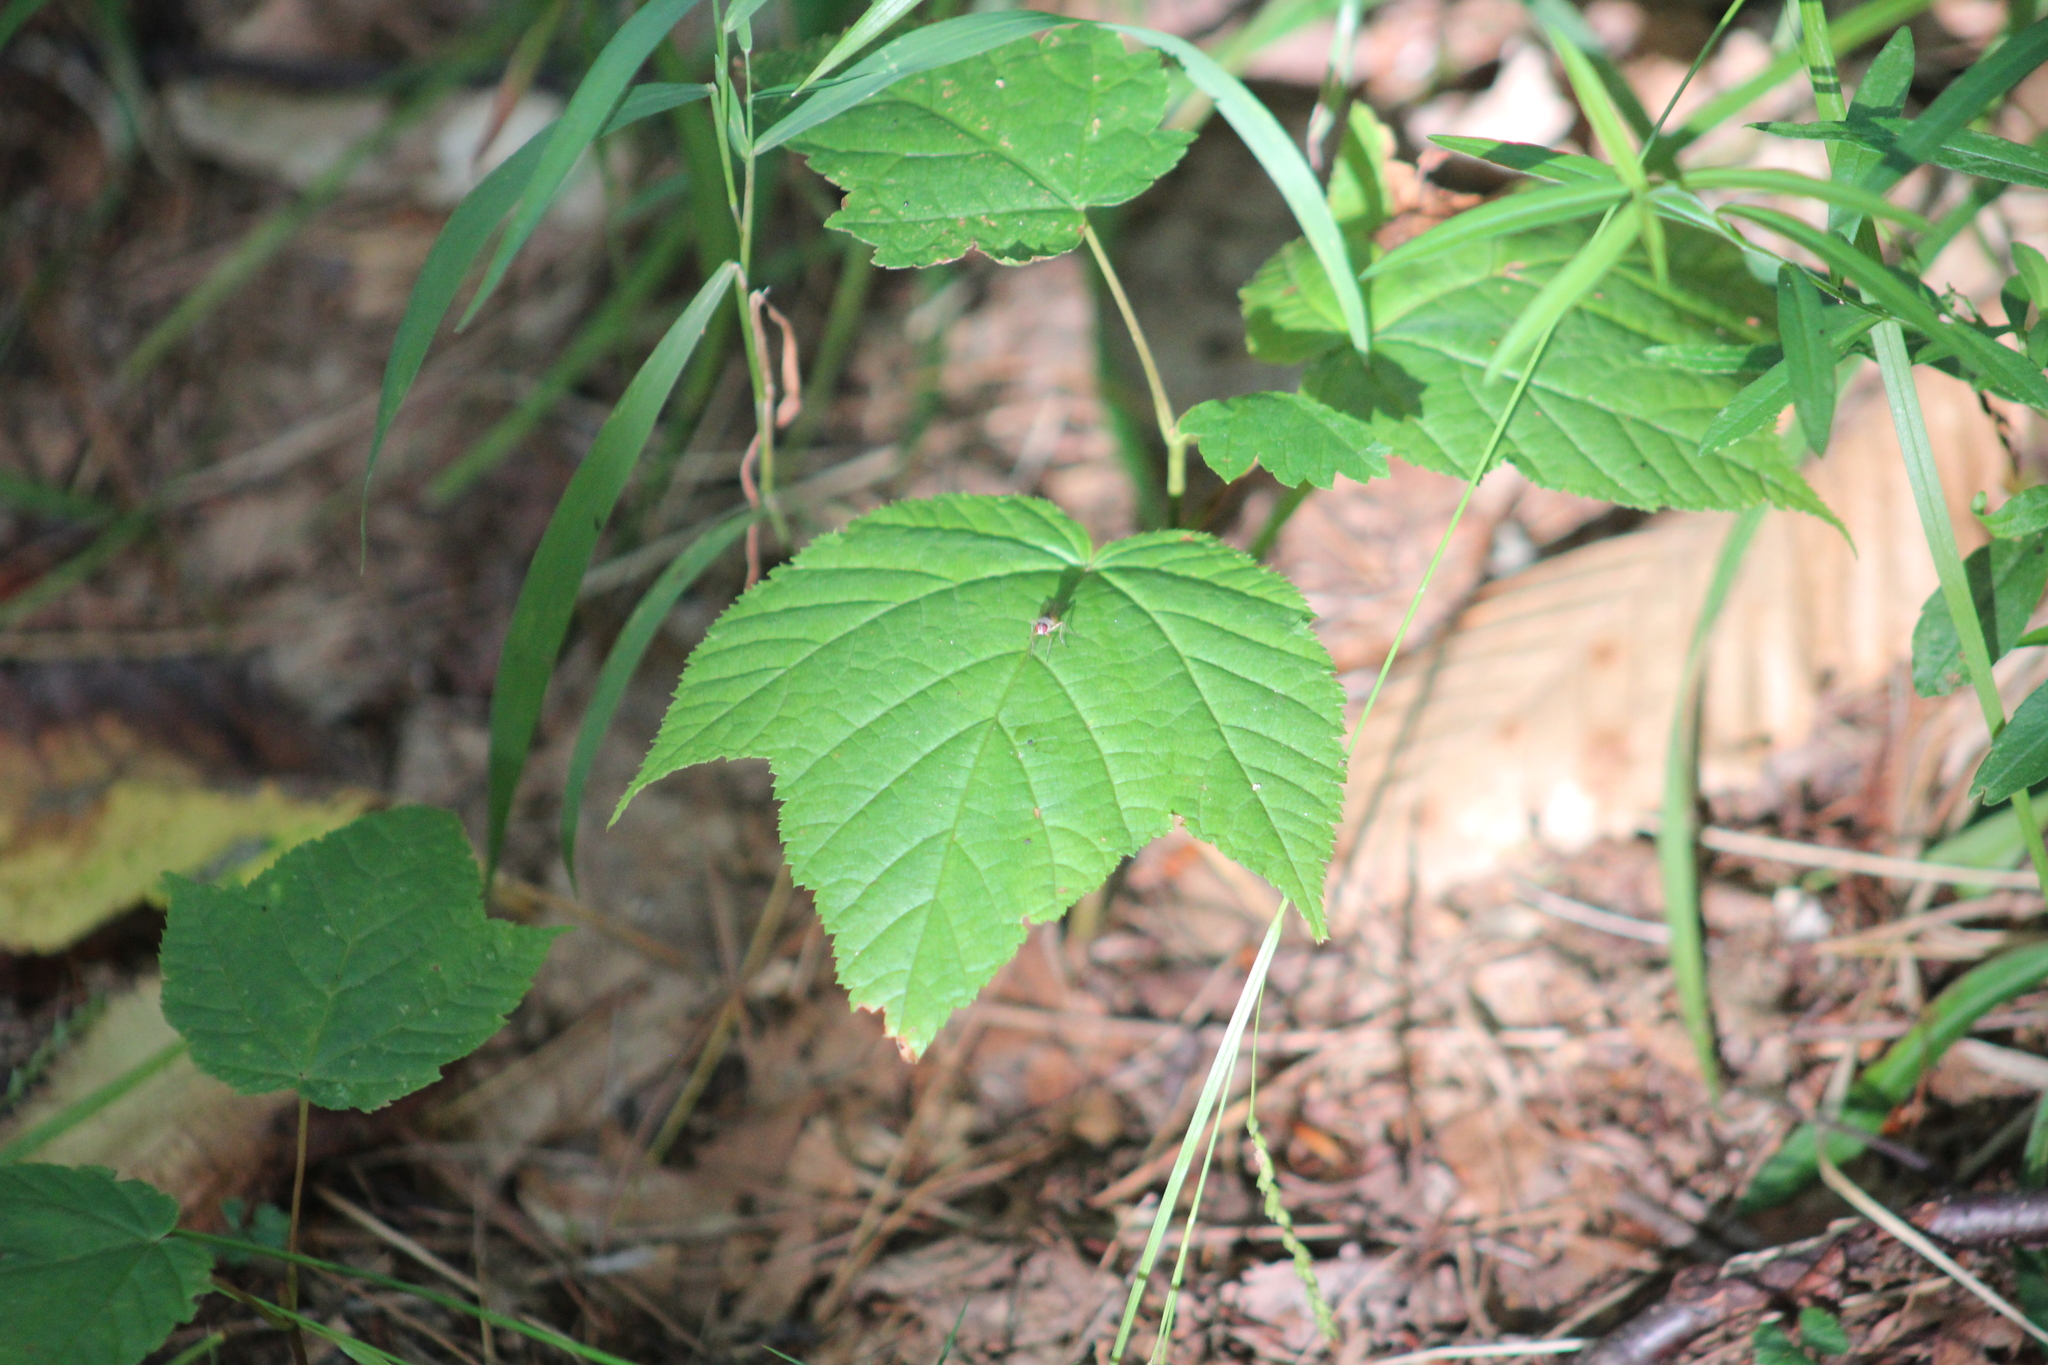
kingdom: Plantae
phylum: Tracheophyta
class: Magnoliopsida
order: Sapindales
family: Sapindaceae
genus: Acer
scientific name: Acer pensylvanicum
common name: Moosewood
